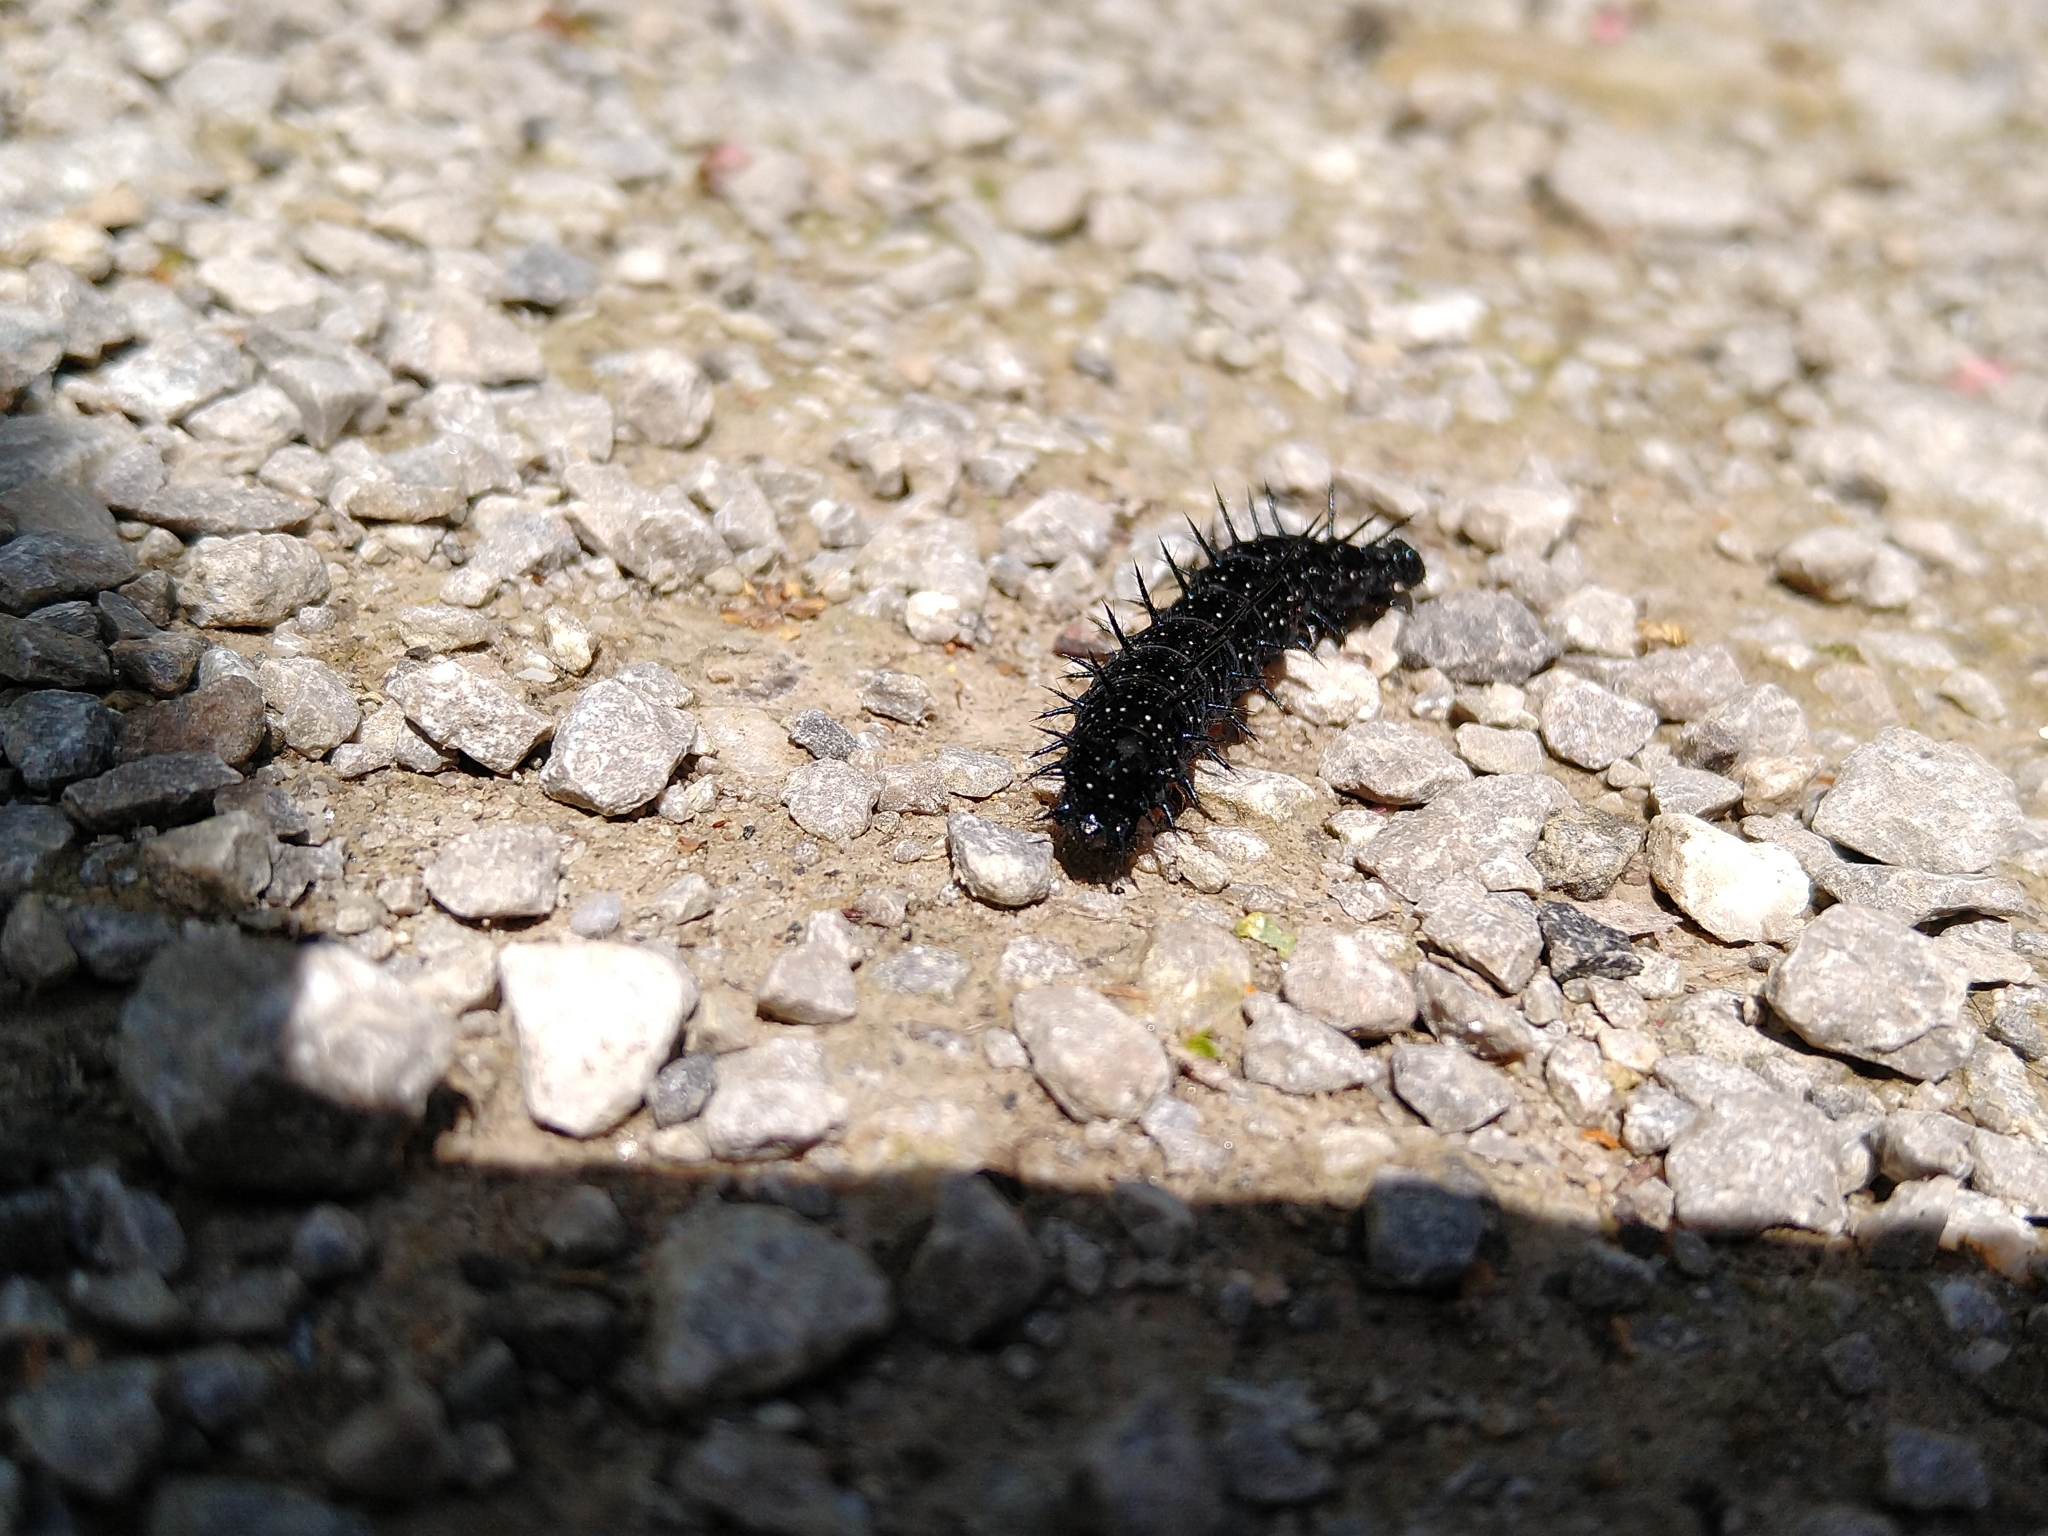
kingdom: Animalia
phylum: Arthropoda
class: Insecta
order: Lepidoptera
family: Nymphalidae
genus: Aglais
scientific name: Aglais io
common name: Peacock
